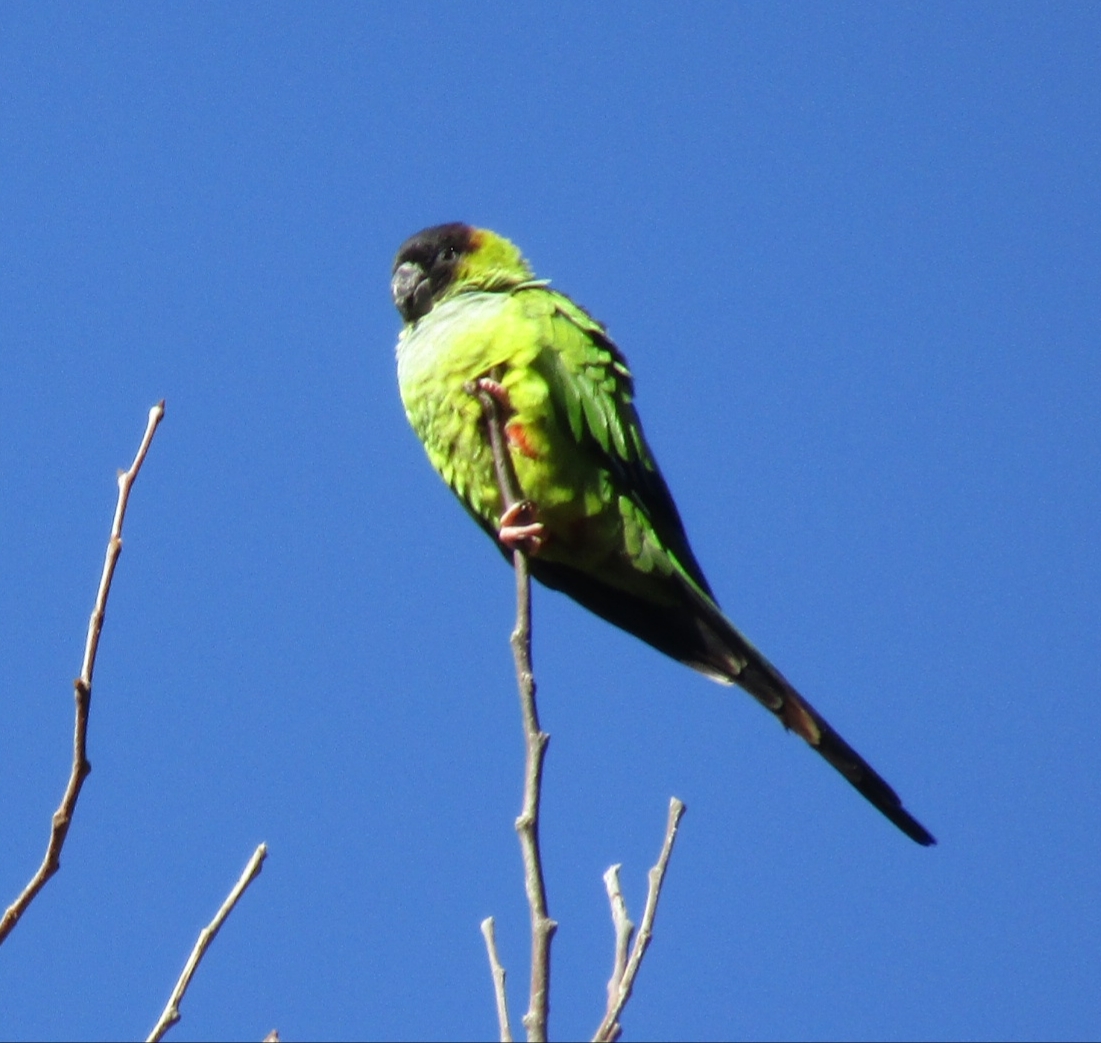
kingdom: Animalia
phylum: Chordata
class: Aves
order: Psittaciformes
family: Psittacidae
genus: Nandayus
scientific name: Nandayus nenday
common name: Nanday parakeet
